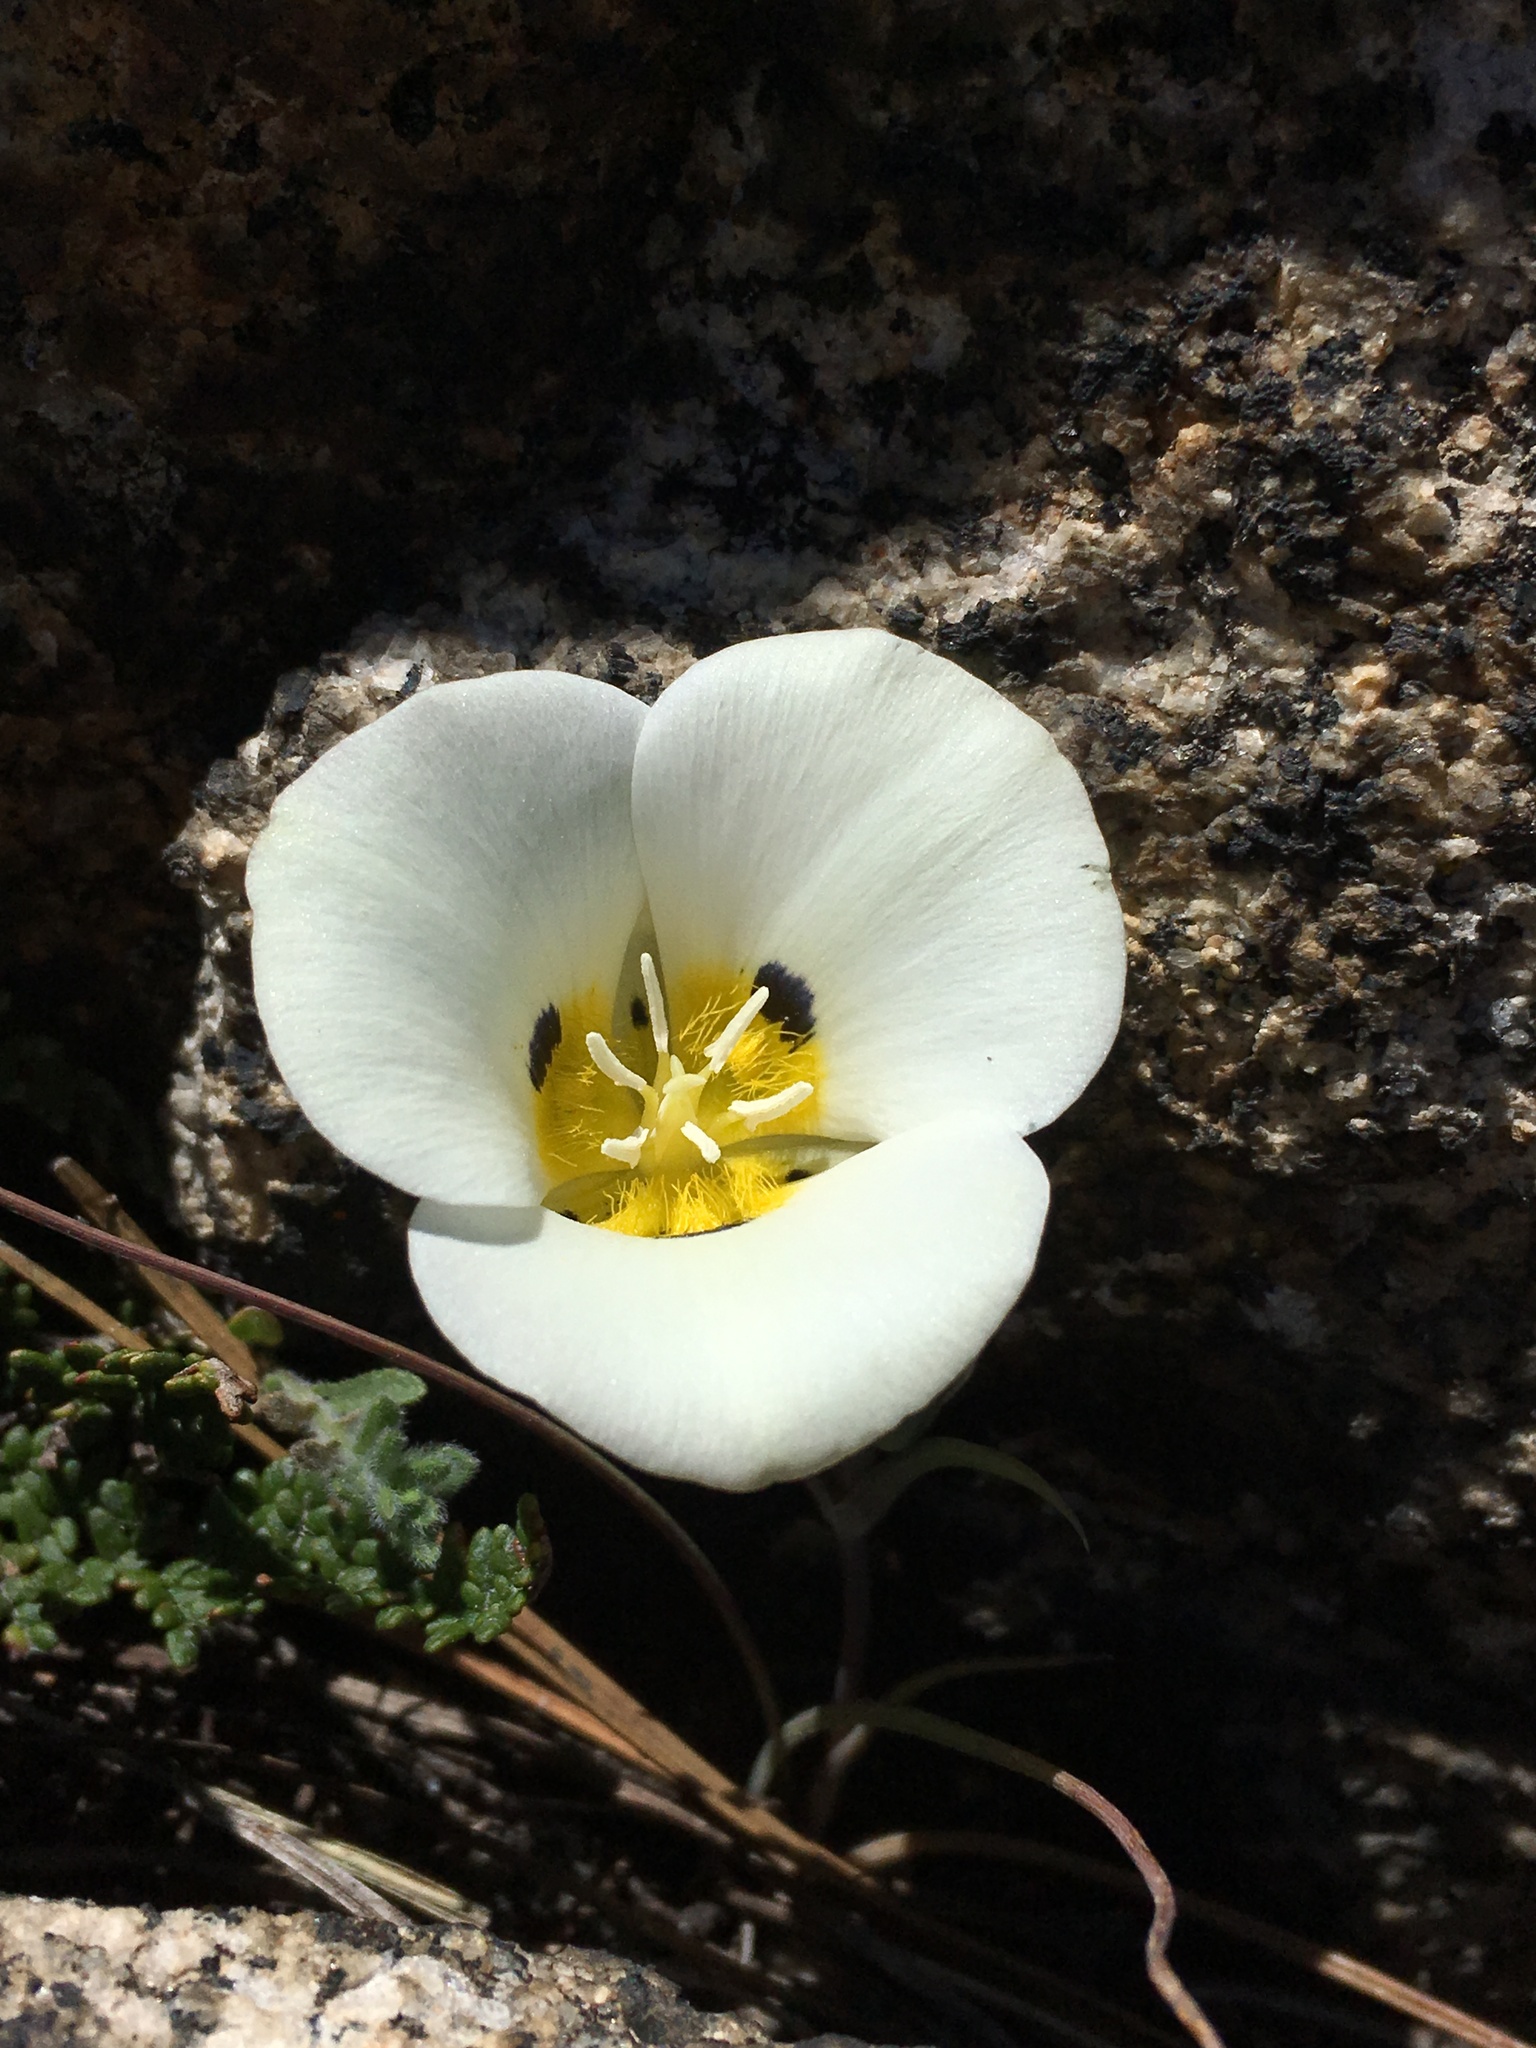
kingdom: Plantae
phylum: Tracheophyta
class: Liliopsida
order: Liliales
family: Liliaceae
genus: Calochortus
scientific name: Calochortus leichtlinii
